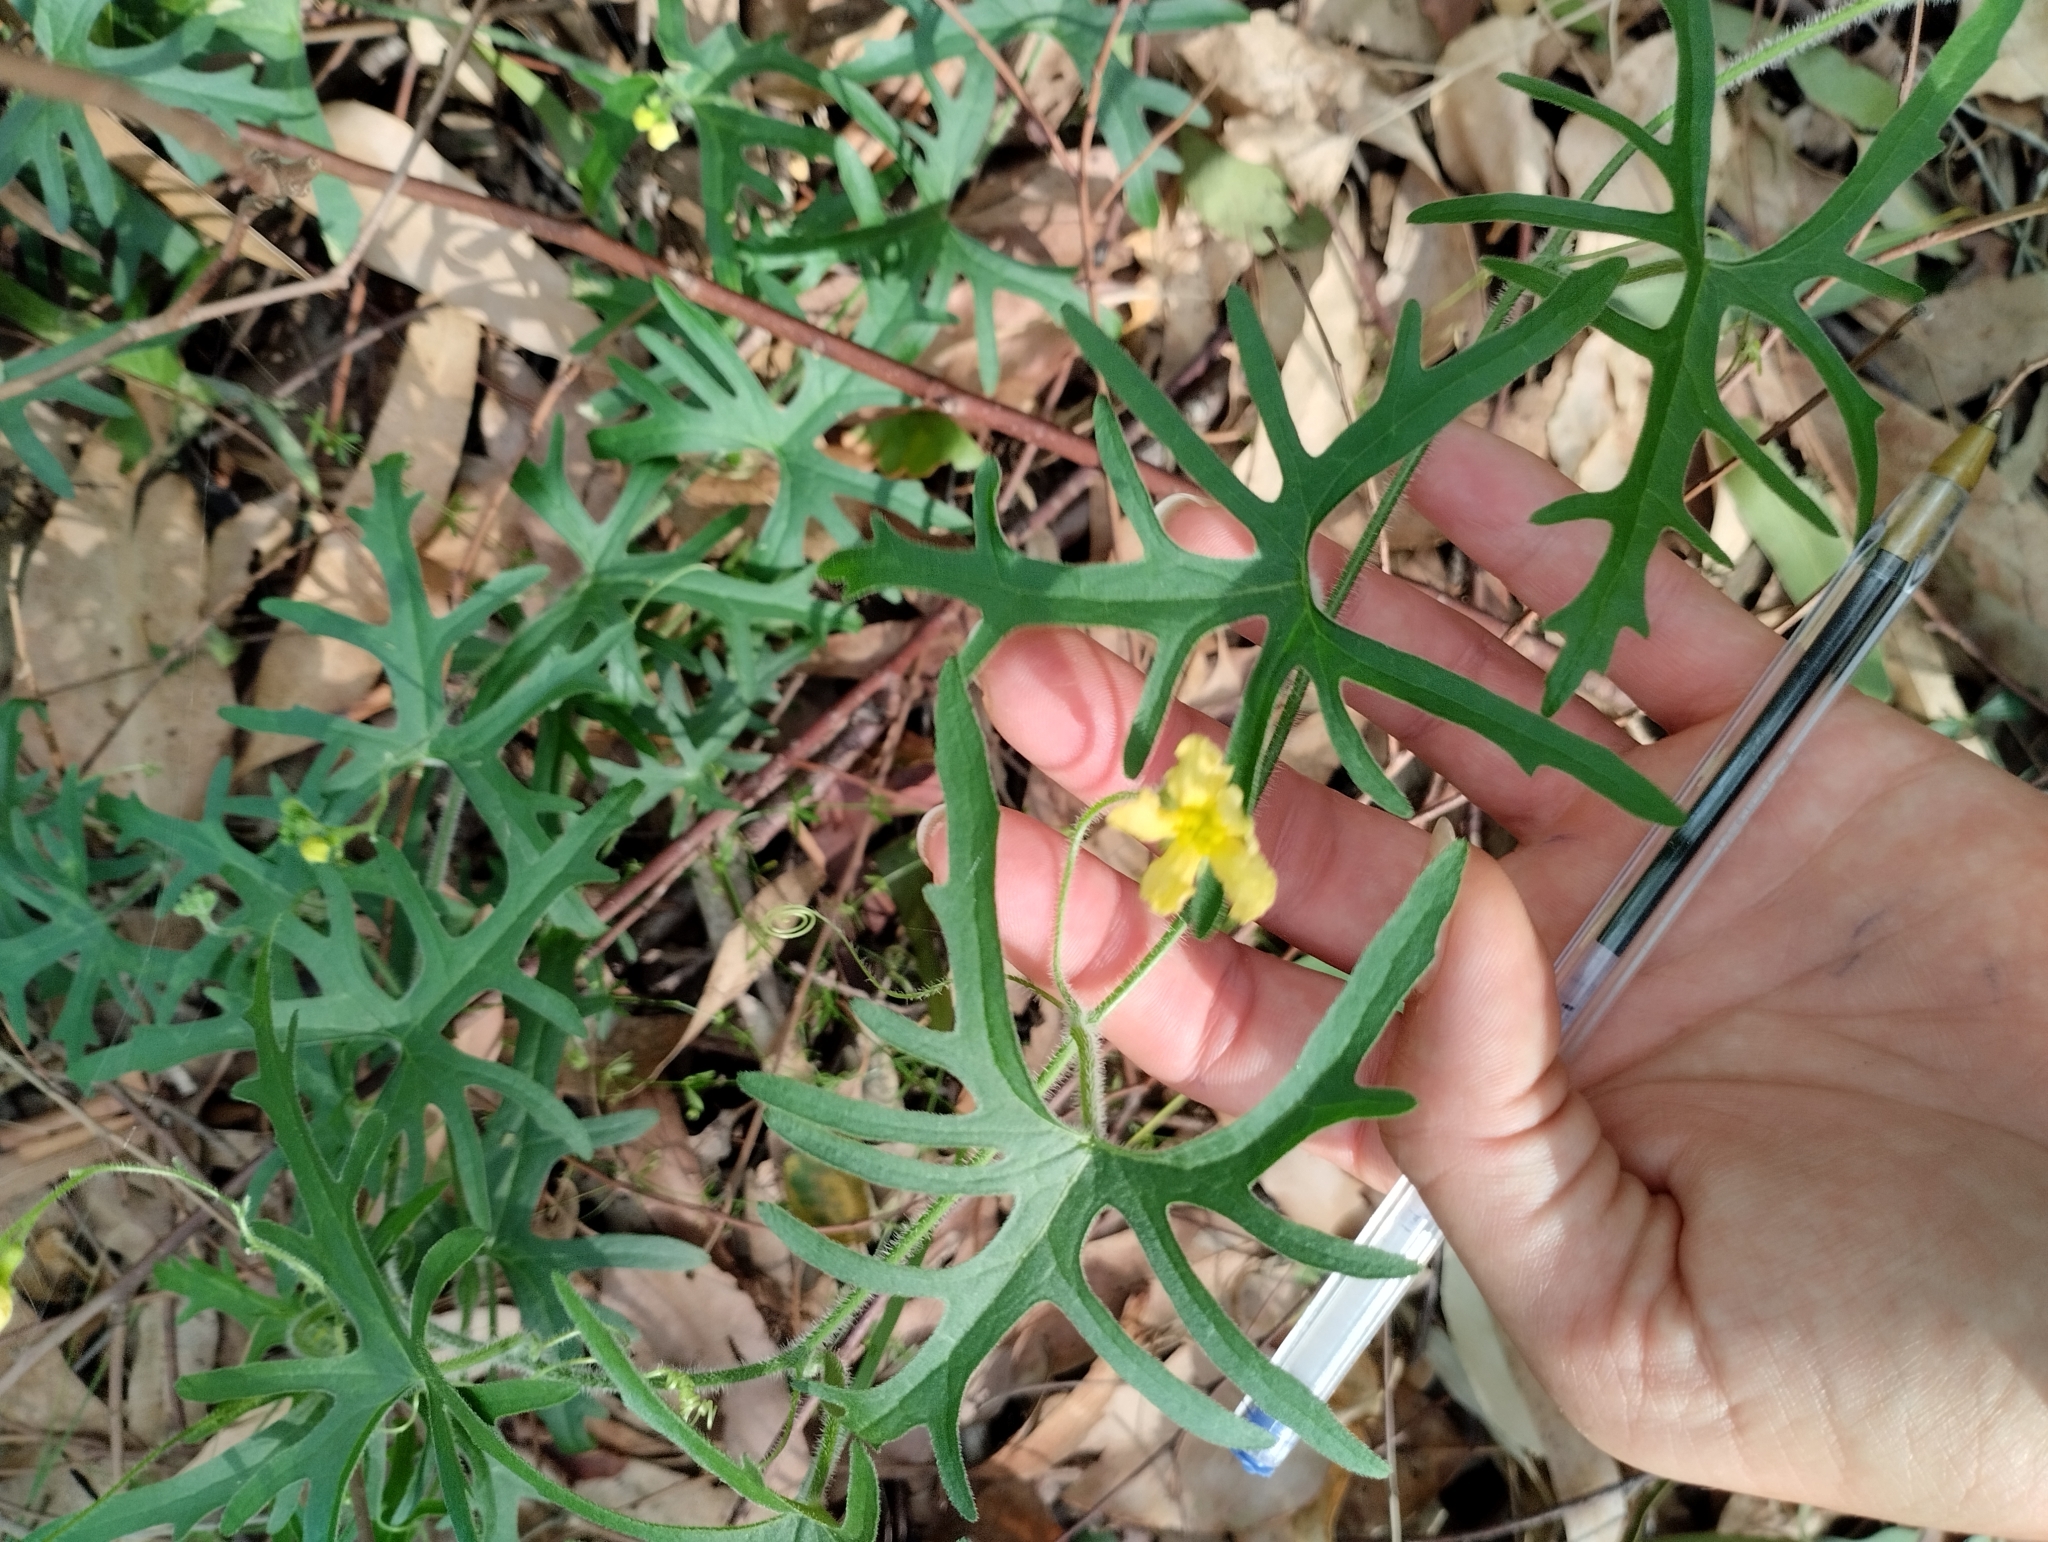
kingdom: Plantae
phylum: Tracheophyta
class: Magnoliopsida
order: Cucurbitales
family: Cucurbitaceae
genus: Cucurbitella
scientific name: Cucurbitella asperata
